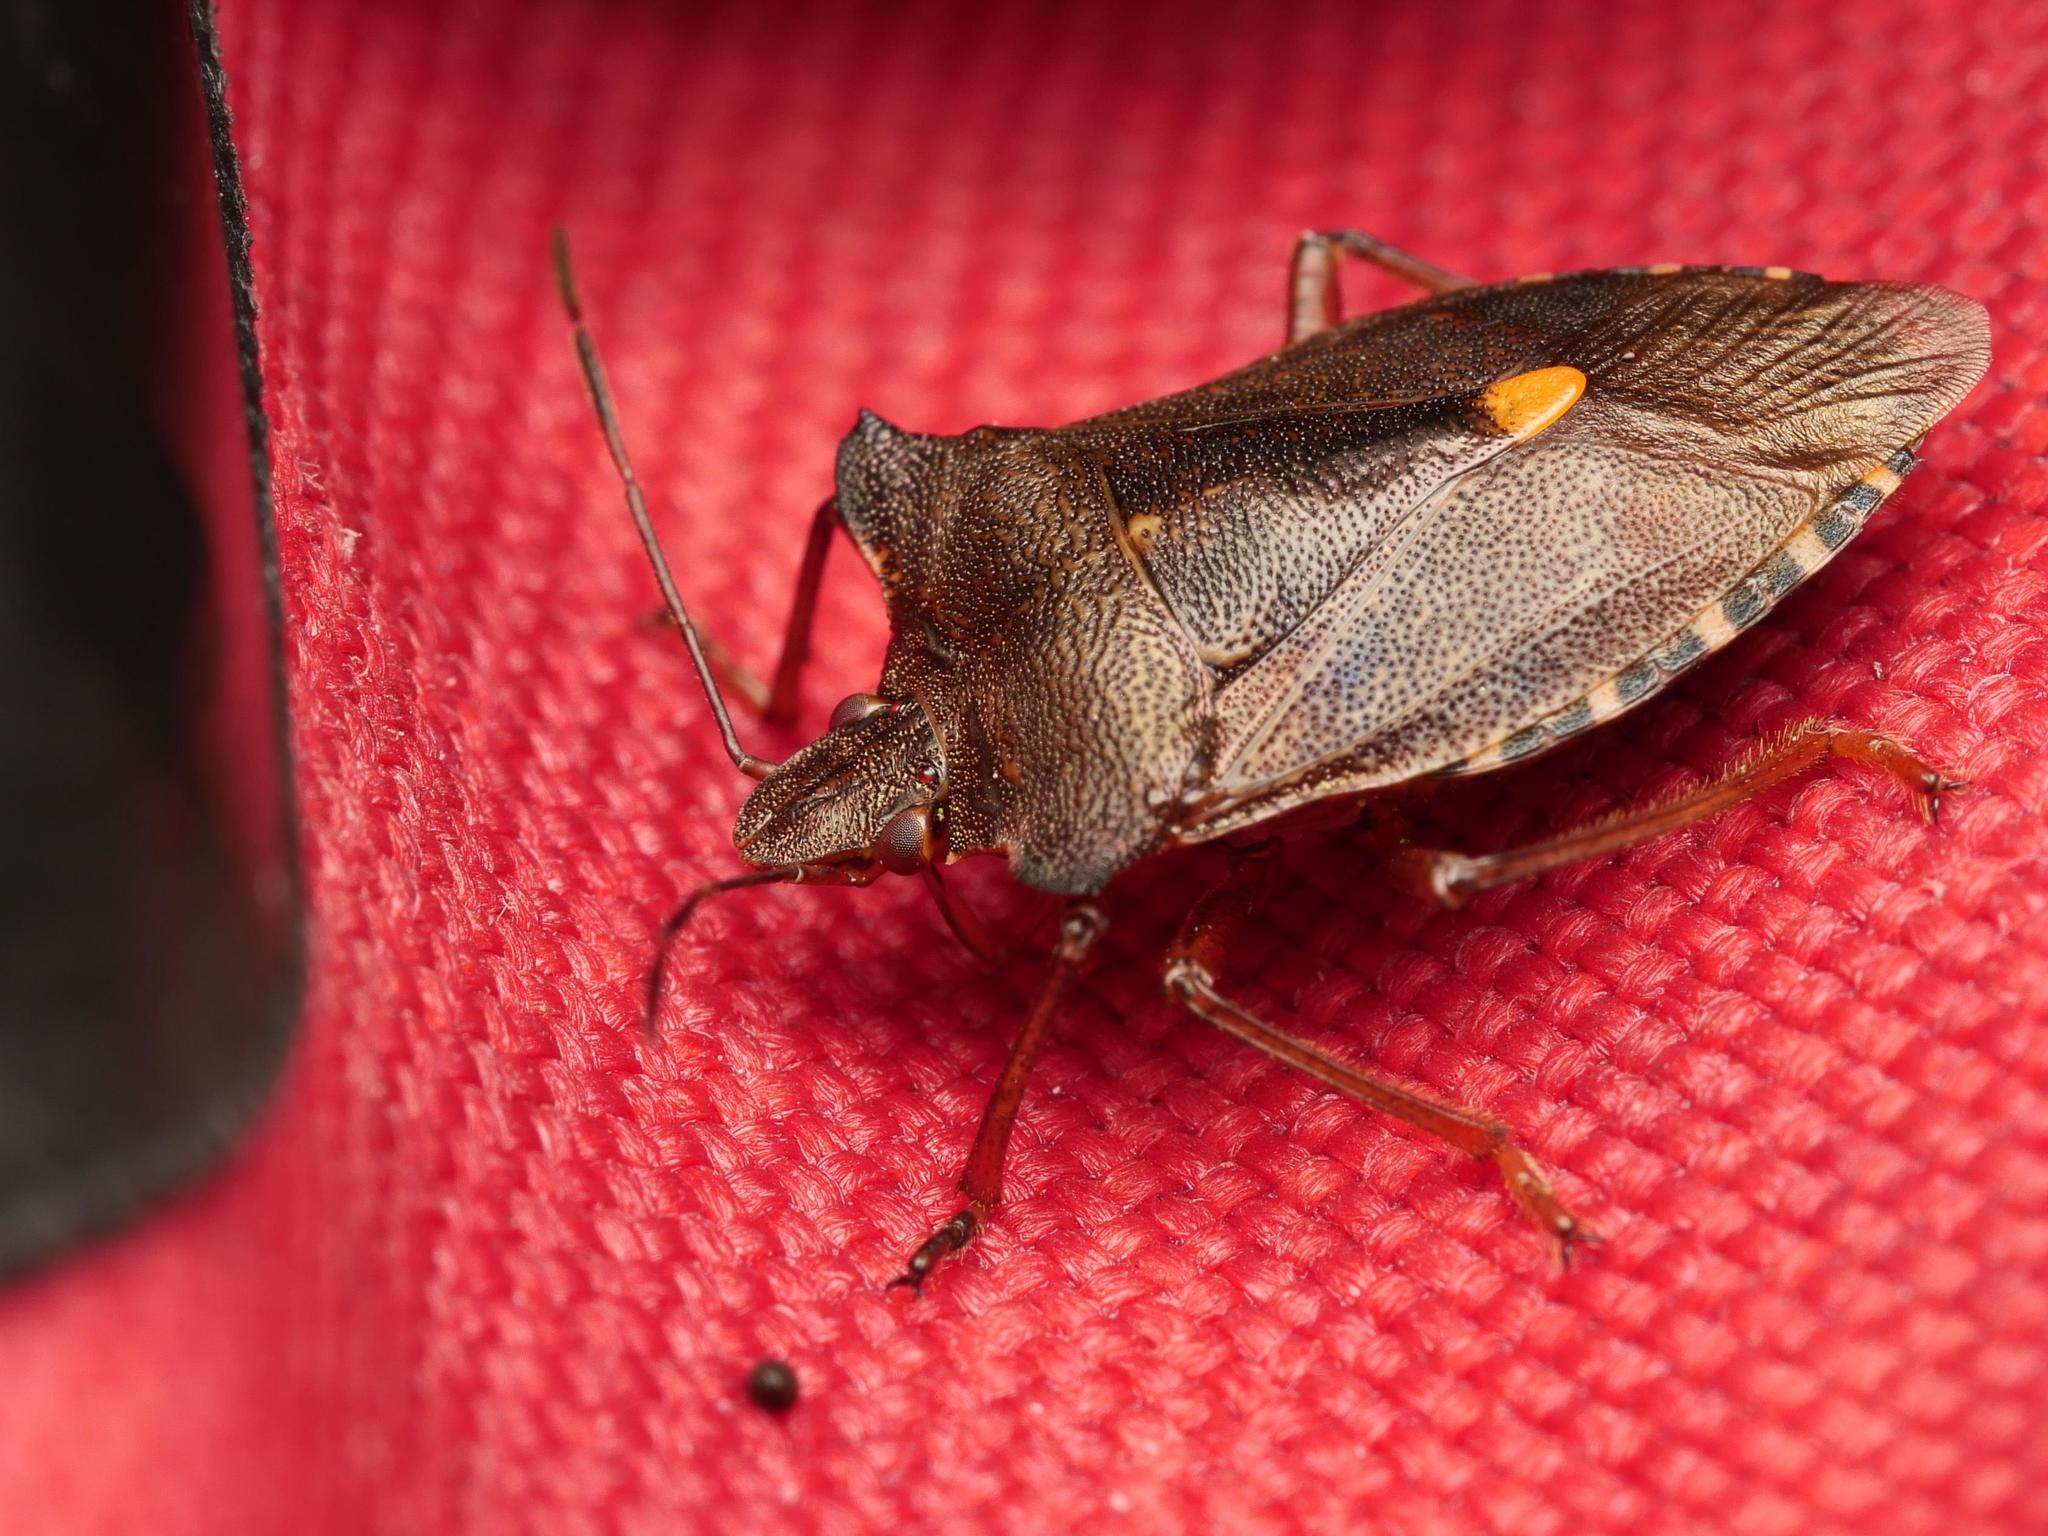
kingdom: Animalia
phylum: Arthropoda
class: Insecta
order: Hemiptera
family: Pentatomidae
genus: Pentatoma
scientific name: Pentatoma rufipes
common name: Forest bug
